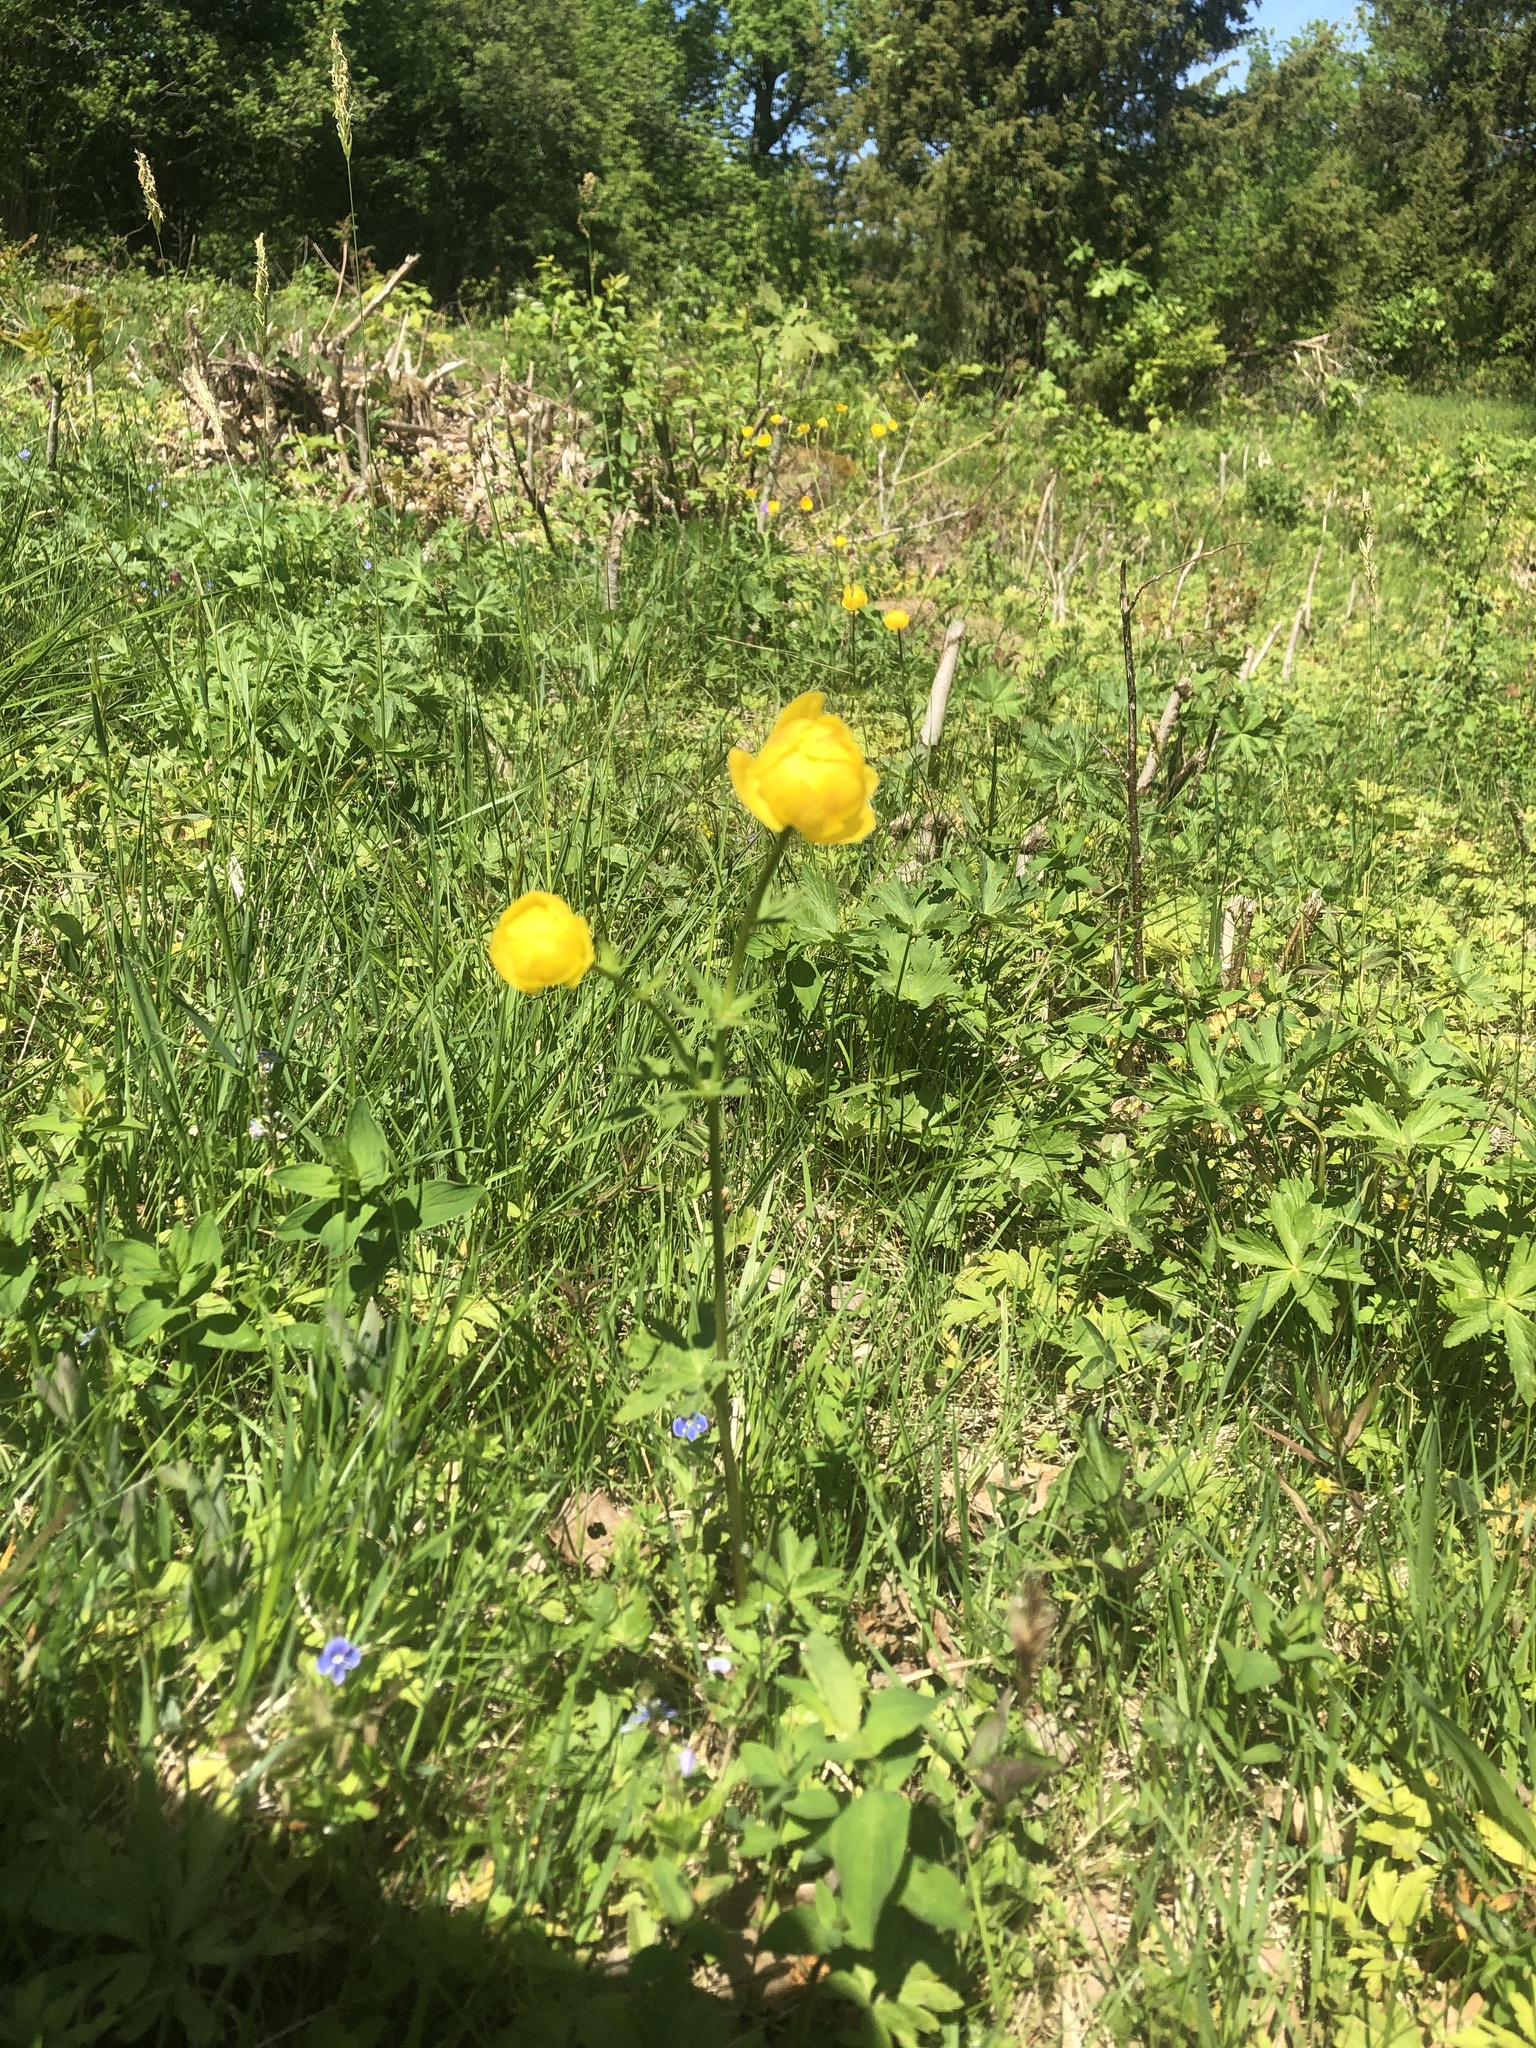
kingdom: Plantae
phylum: Tracheophyta
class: Magnoliopsida
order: Ranunculales
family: Ranunculaceae
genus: Trollius
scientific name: Trollius europaeus
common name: European globeflower
